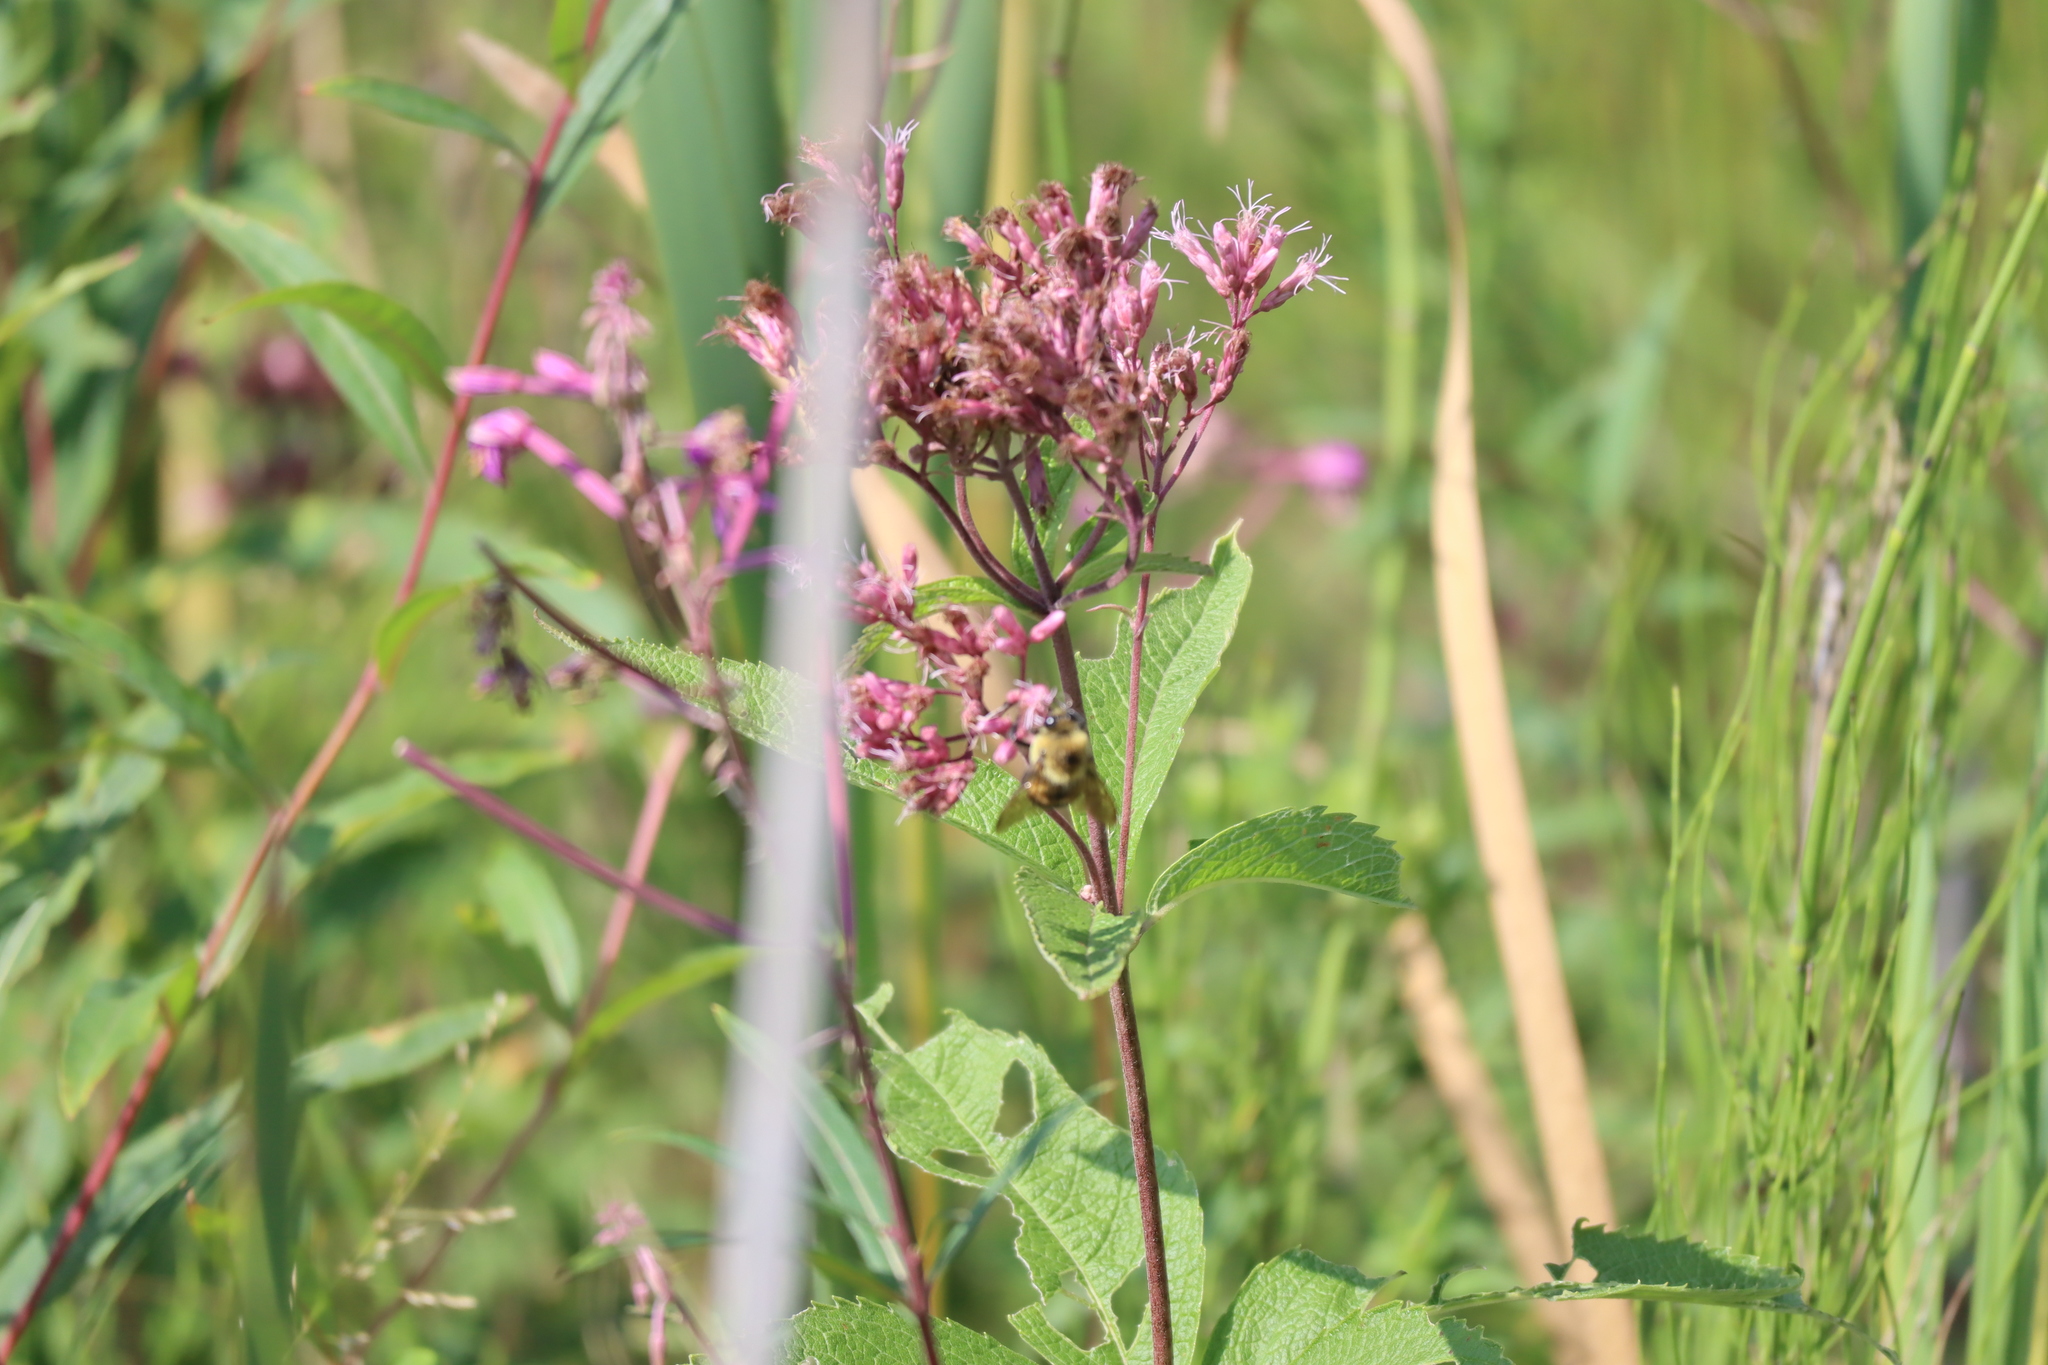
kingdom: Plantae
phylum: Tracheophyta
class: Magnoliopsida
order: Asterales
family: Asteraceae
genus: Eutrochium
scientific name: Eutrochium maculatum
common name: Spotted joe pye weed
